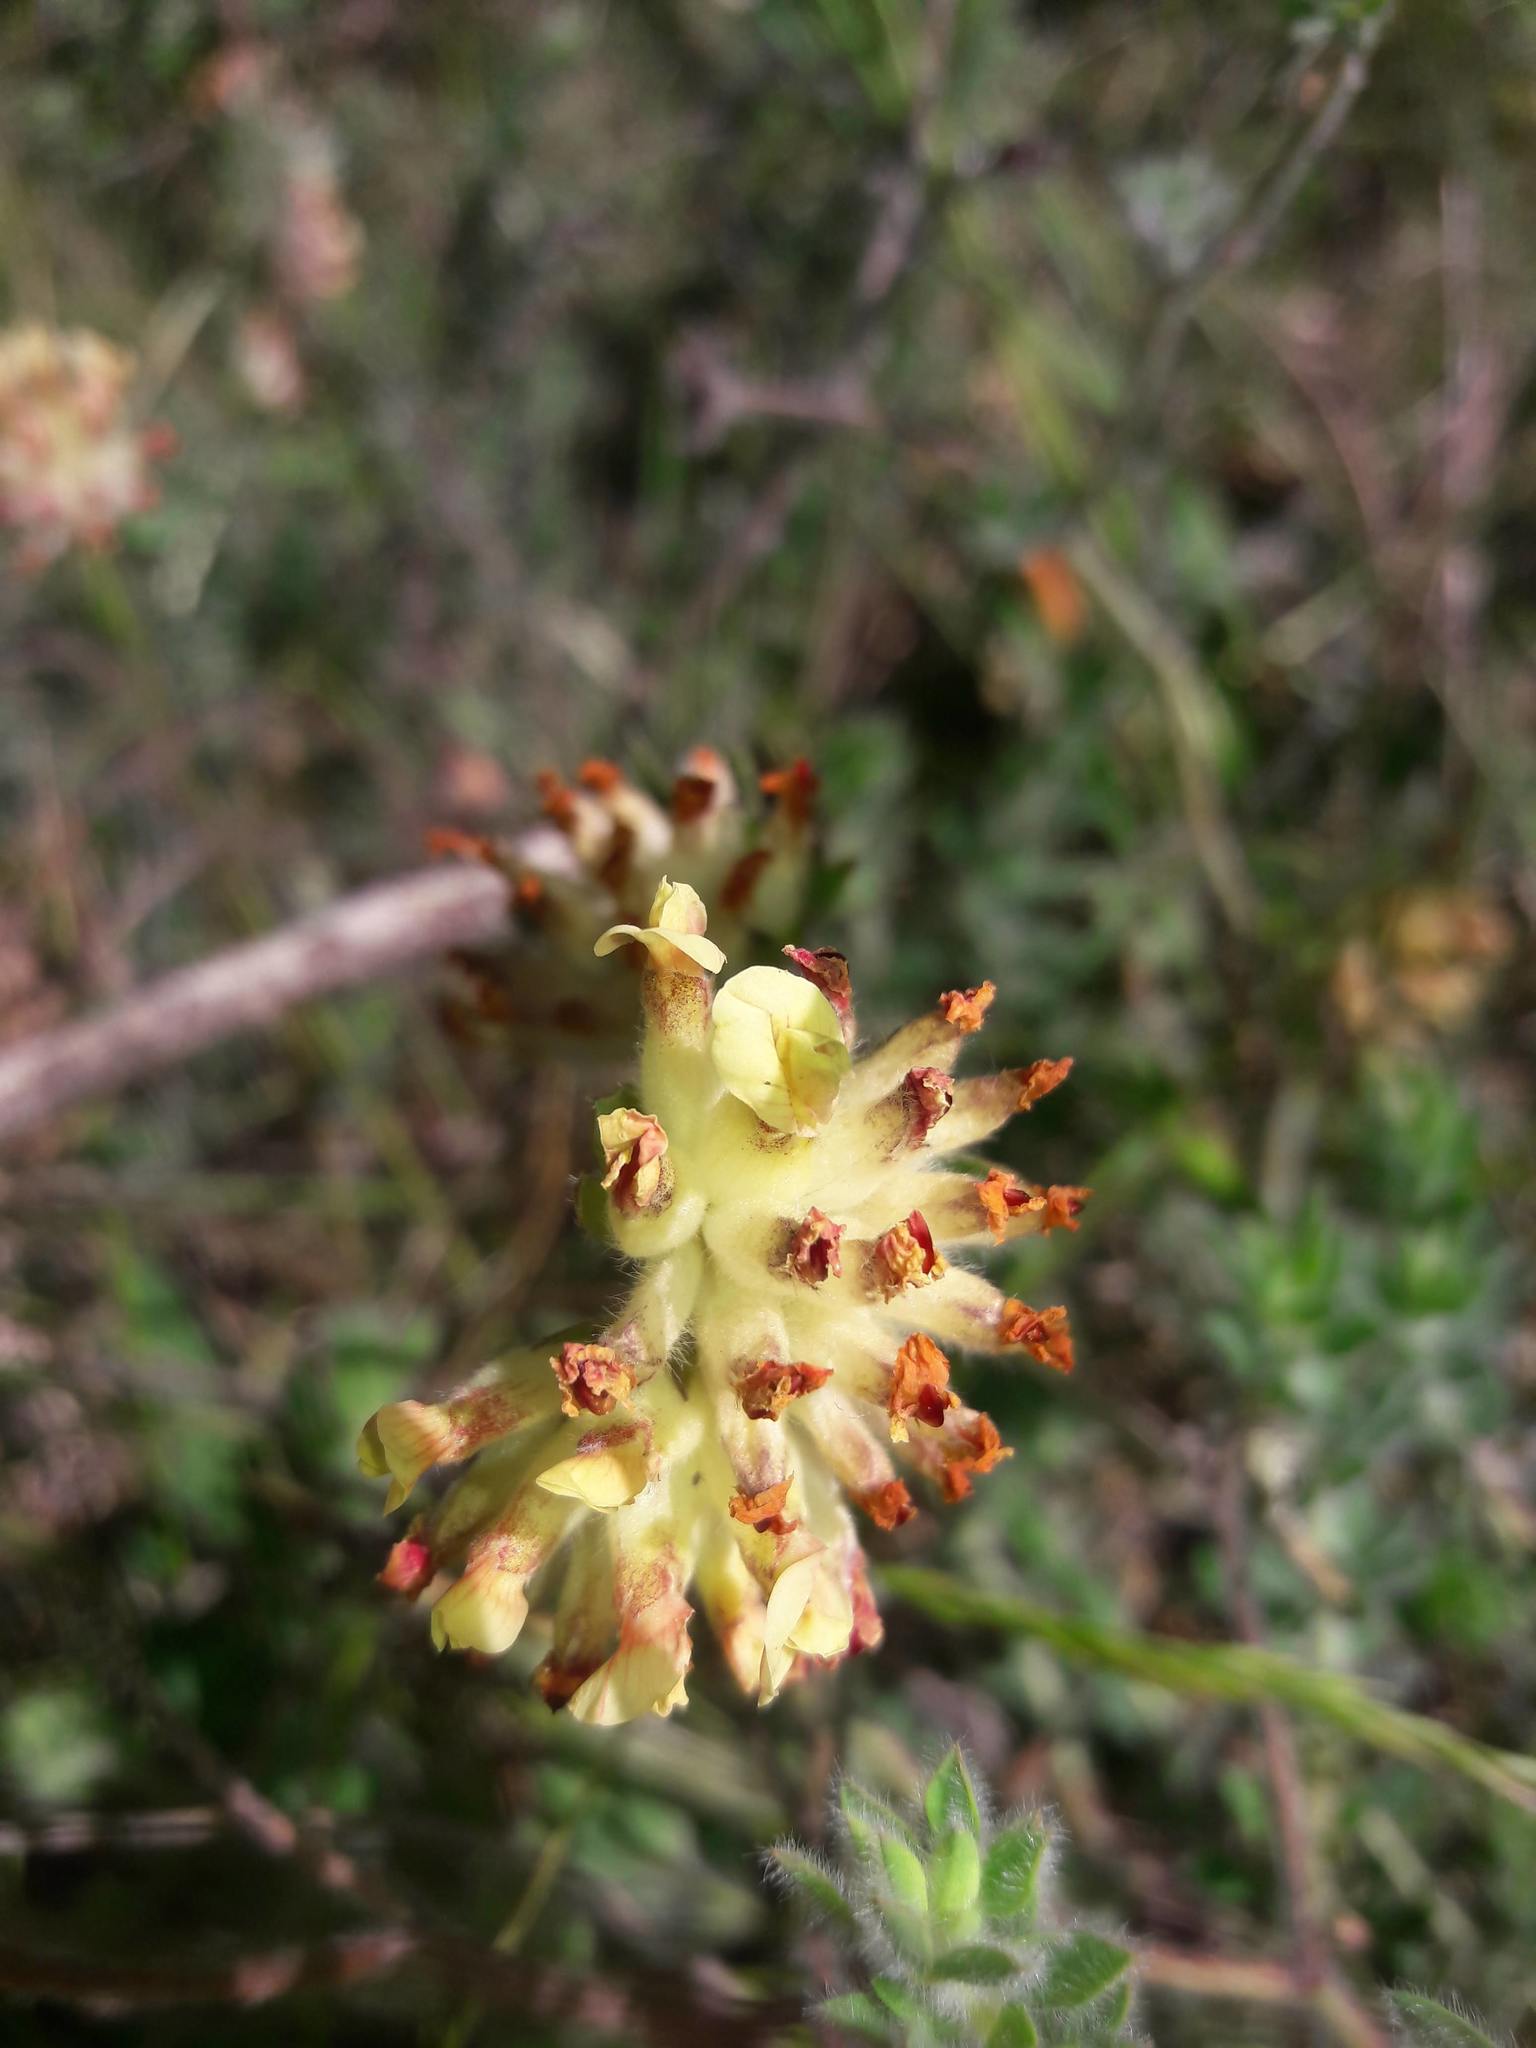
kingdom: Plantae
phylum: Tracheophyta
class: Magnoliopsida
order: Fabales
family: Fabaceae
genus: Anthyllis
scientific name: Anthyllis vulneraria
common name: Kidney vetch
